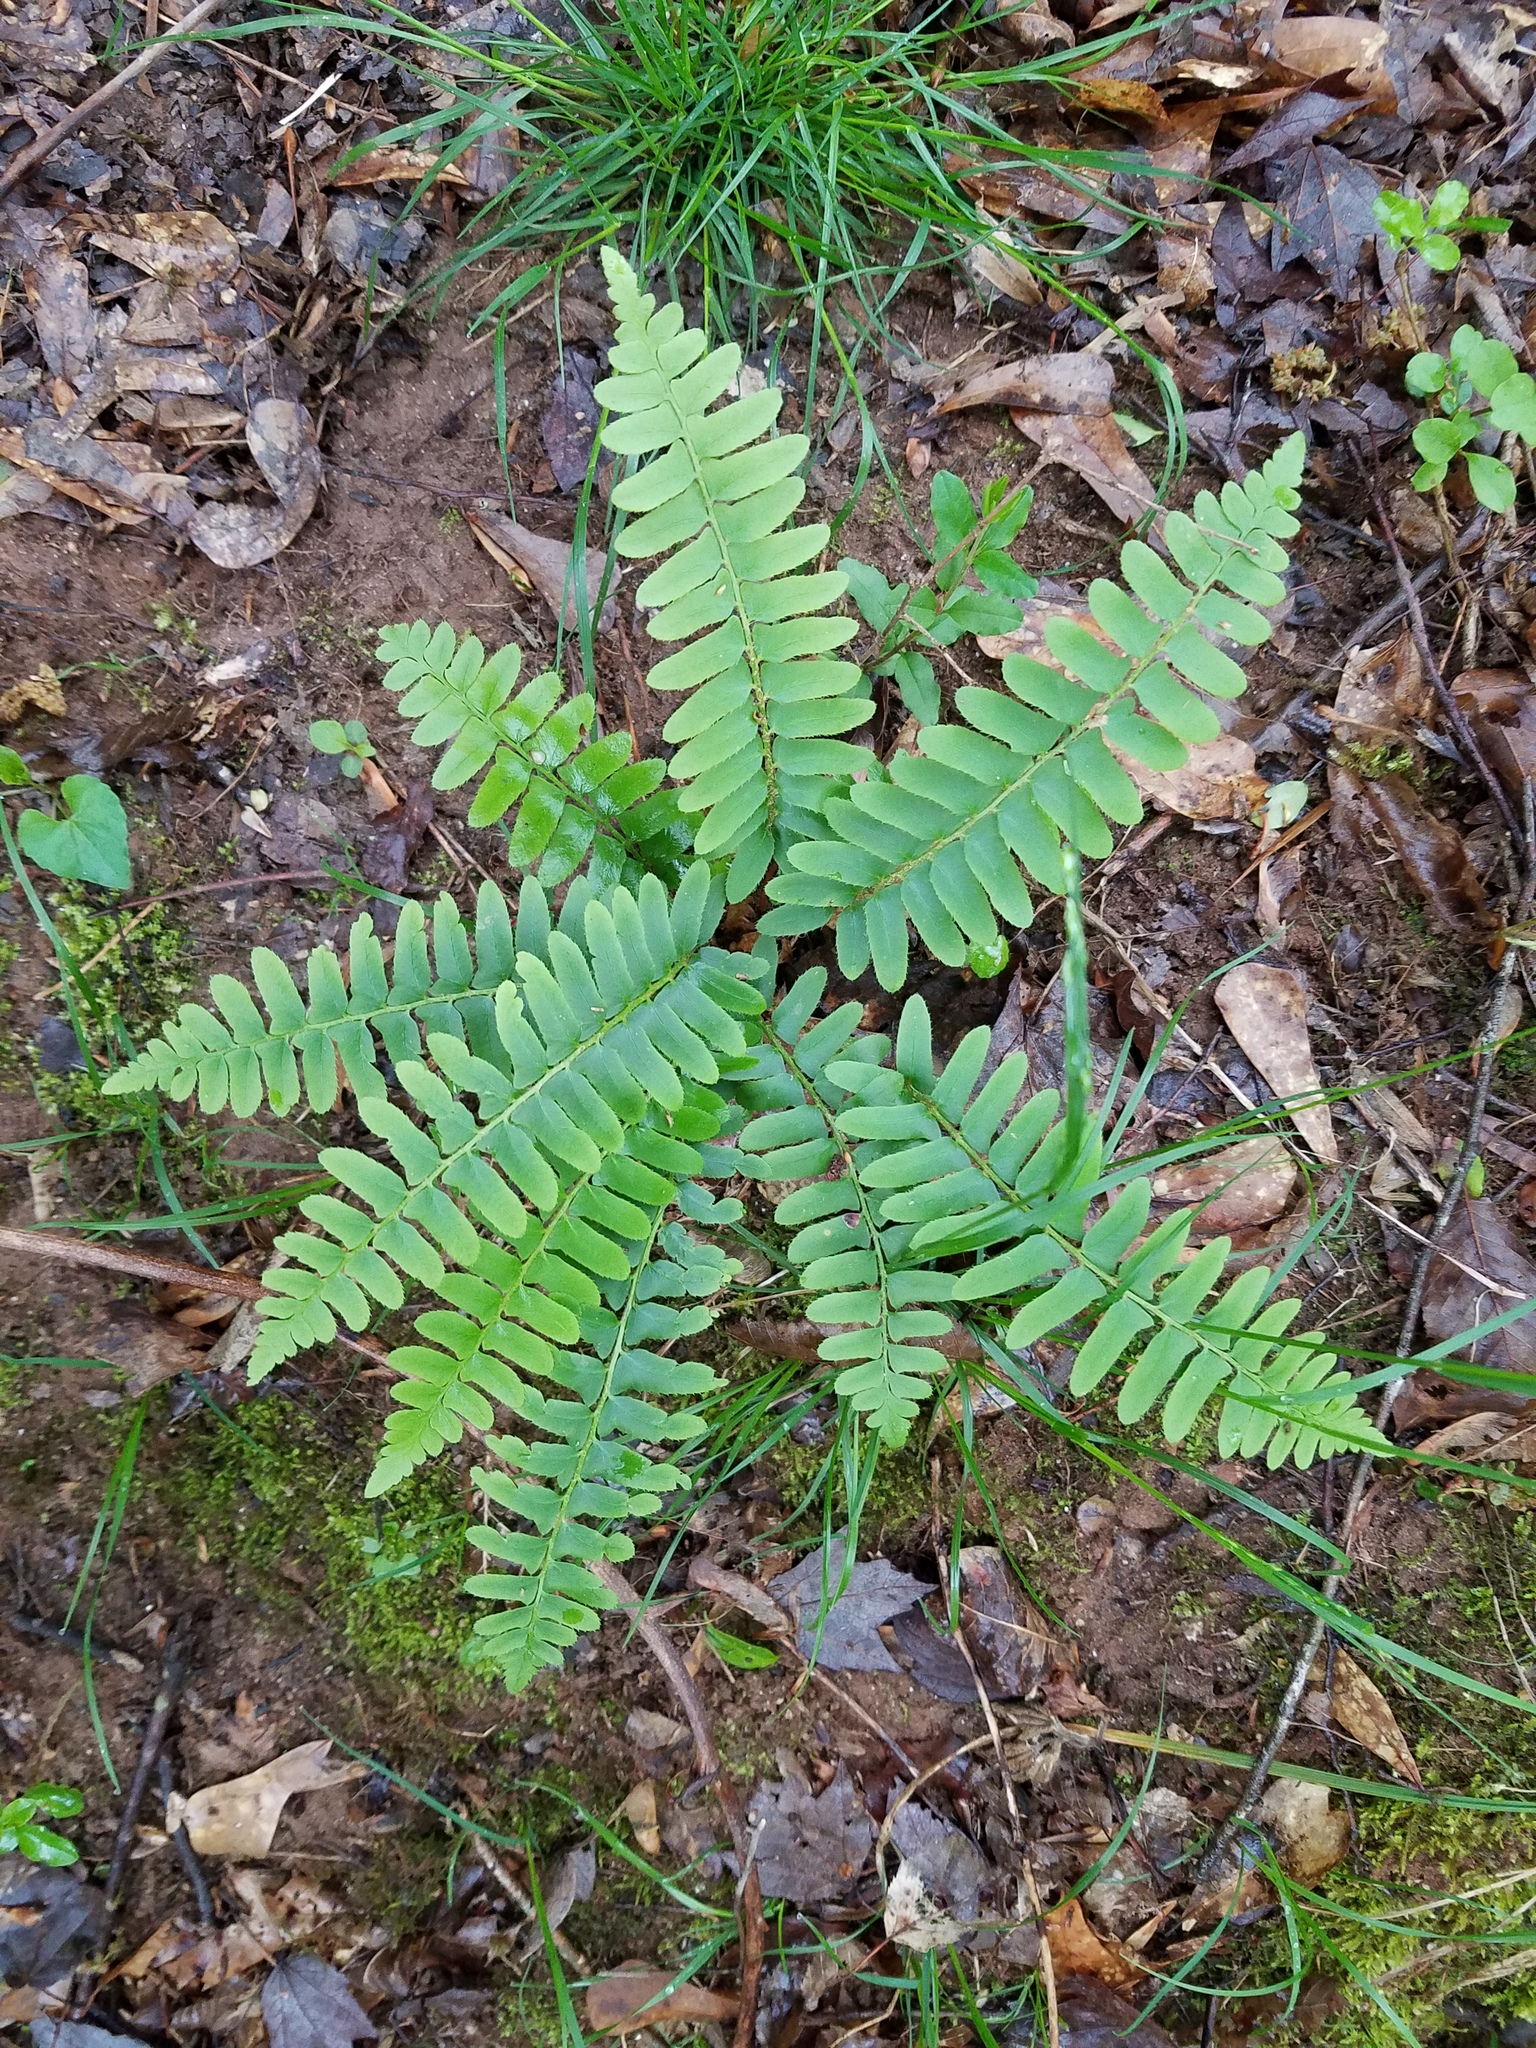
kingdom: Plantae
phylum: Tracheophyta
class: Polypodiopsida
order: Polypodiales
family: Dryopteridaceae
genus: Polystichum
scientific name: Polystichum acrostichoides
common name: Christmas fern
